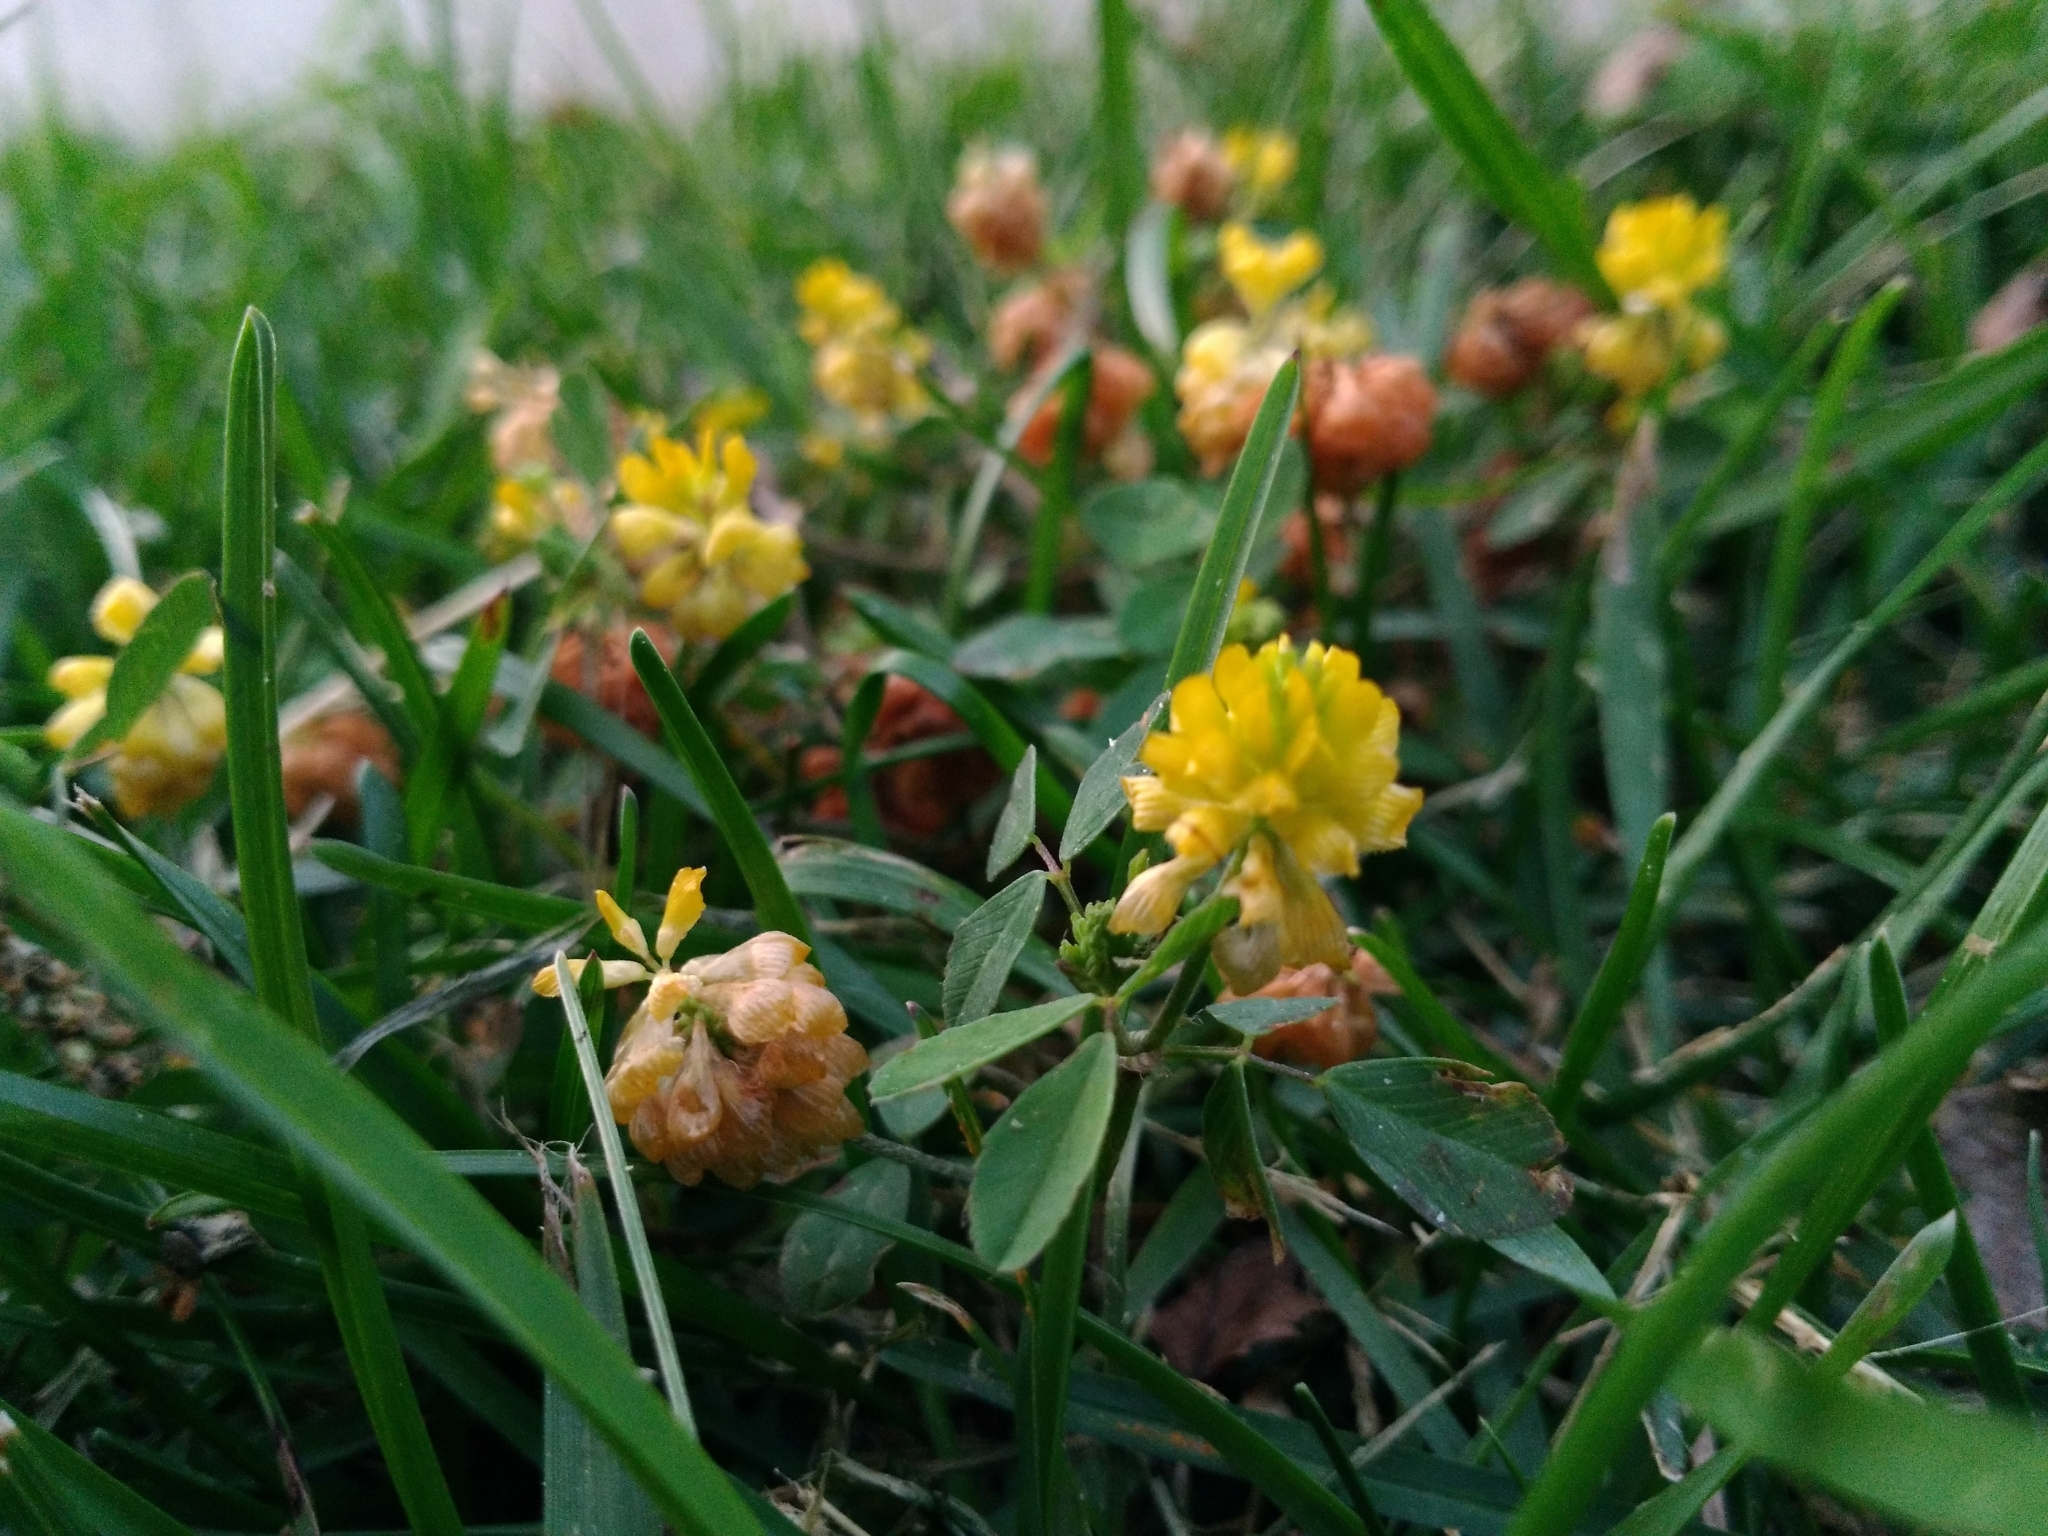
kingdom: Plantae
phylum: Tracheophyta
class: Magnoliopsida
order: Fabales
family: Fabaceae
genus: Trifolium
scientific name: Trifolium campestre
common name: Field clover
